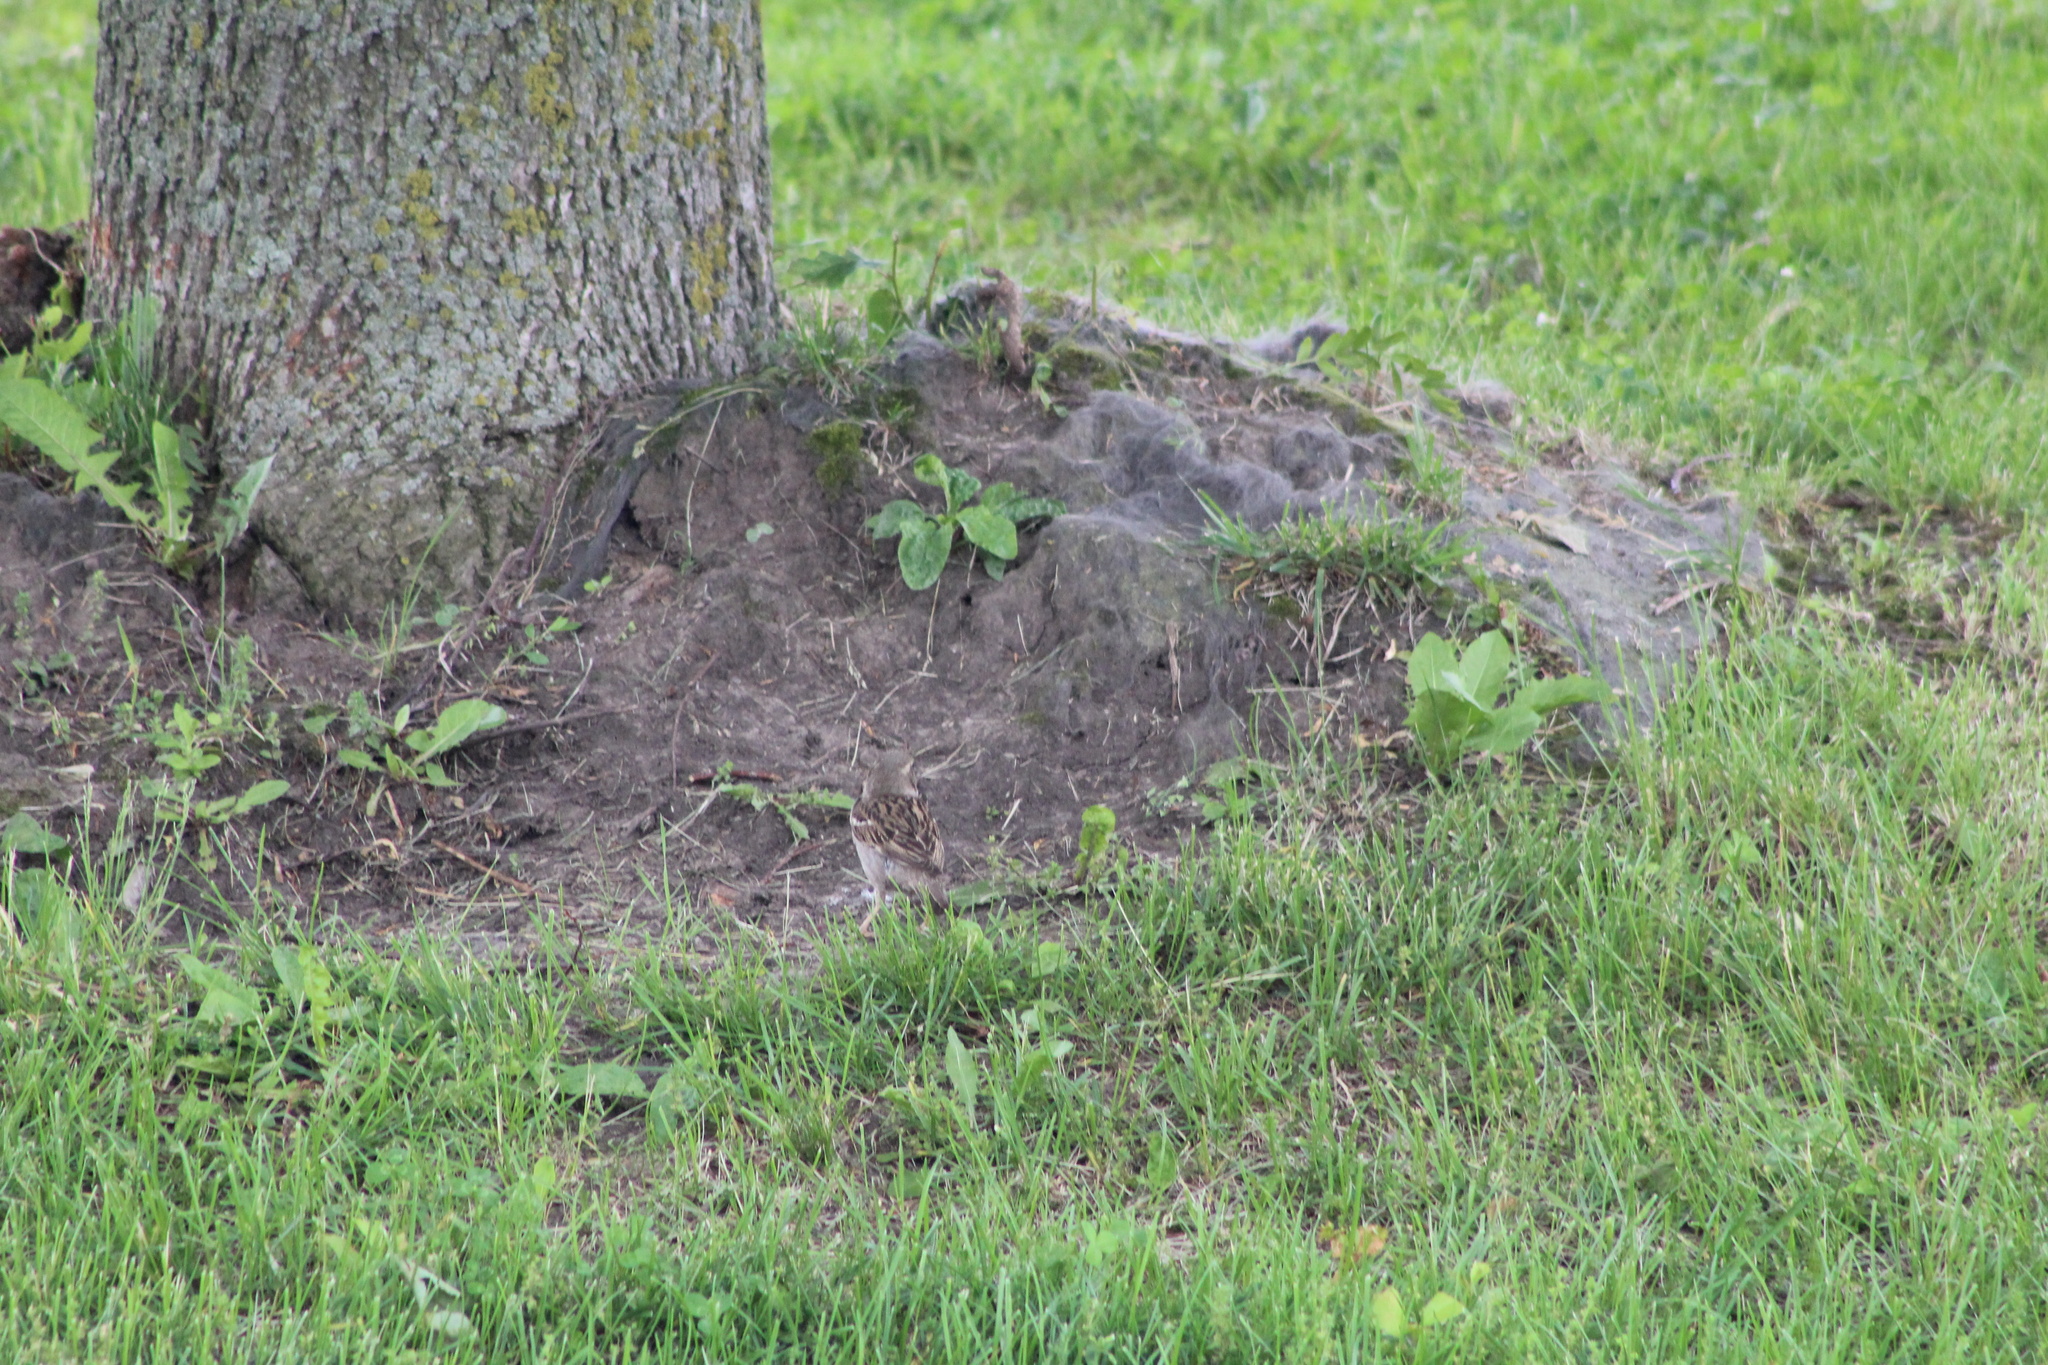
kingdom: Animalia
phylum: Chordata
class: Aves
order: Passeriformes
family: Passeridae
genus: Passer
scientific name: Passer domesticus
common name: House sparrow
